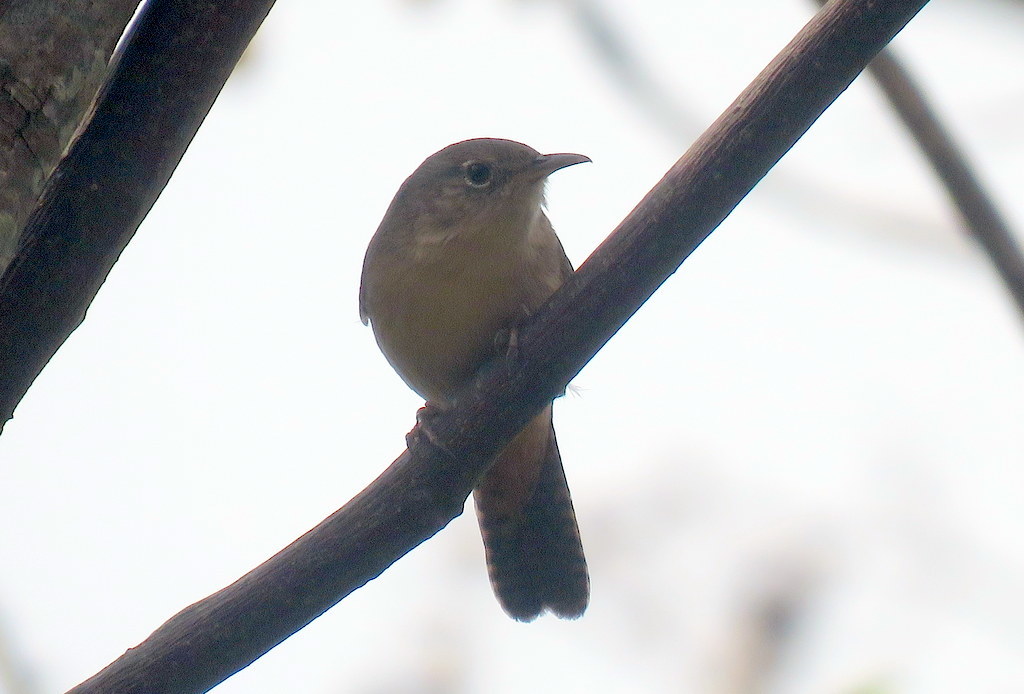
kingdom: Animalia
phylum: Chordata
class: Aves
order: Passeriformes
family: Troglodytidae
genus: Troglodytes
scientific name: Troglodytes aedon
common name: House wren
